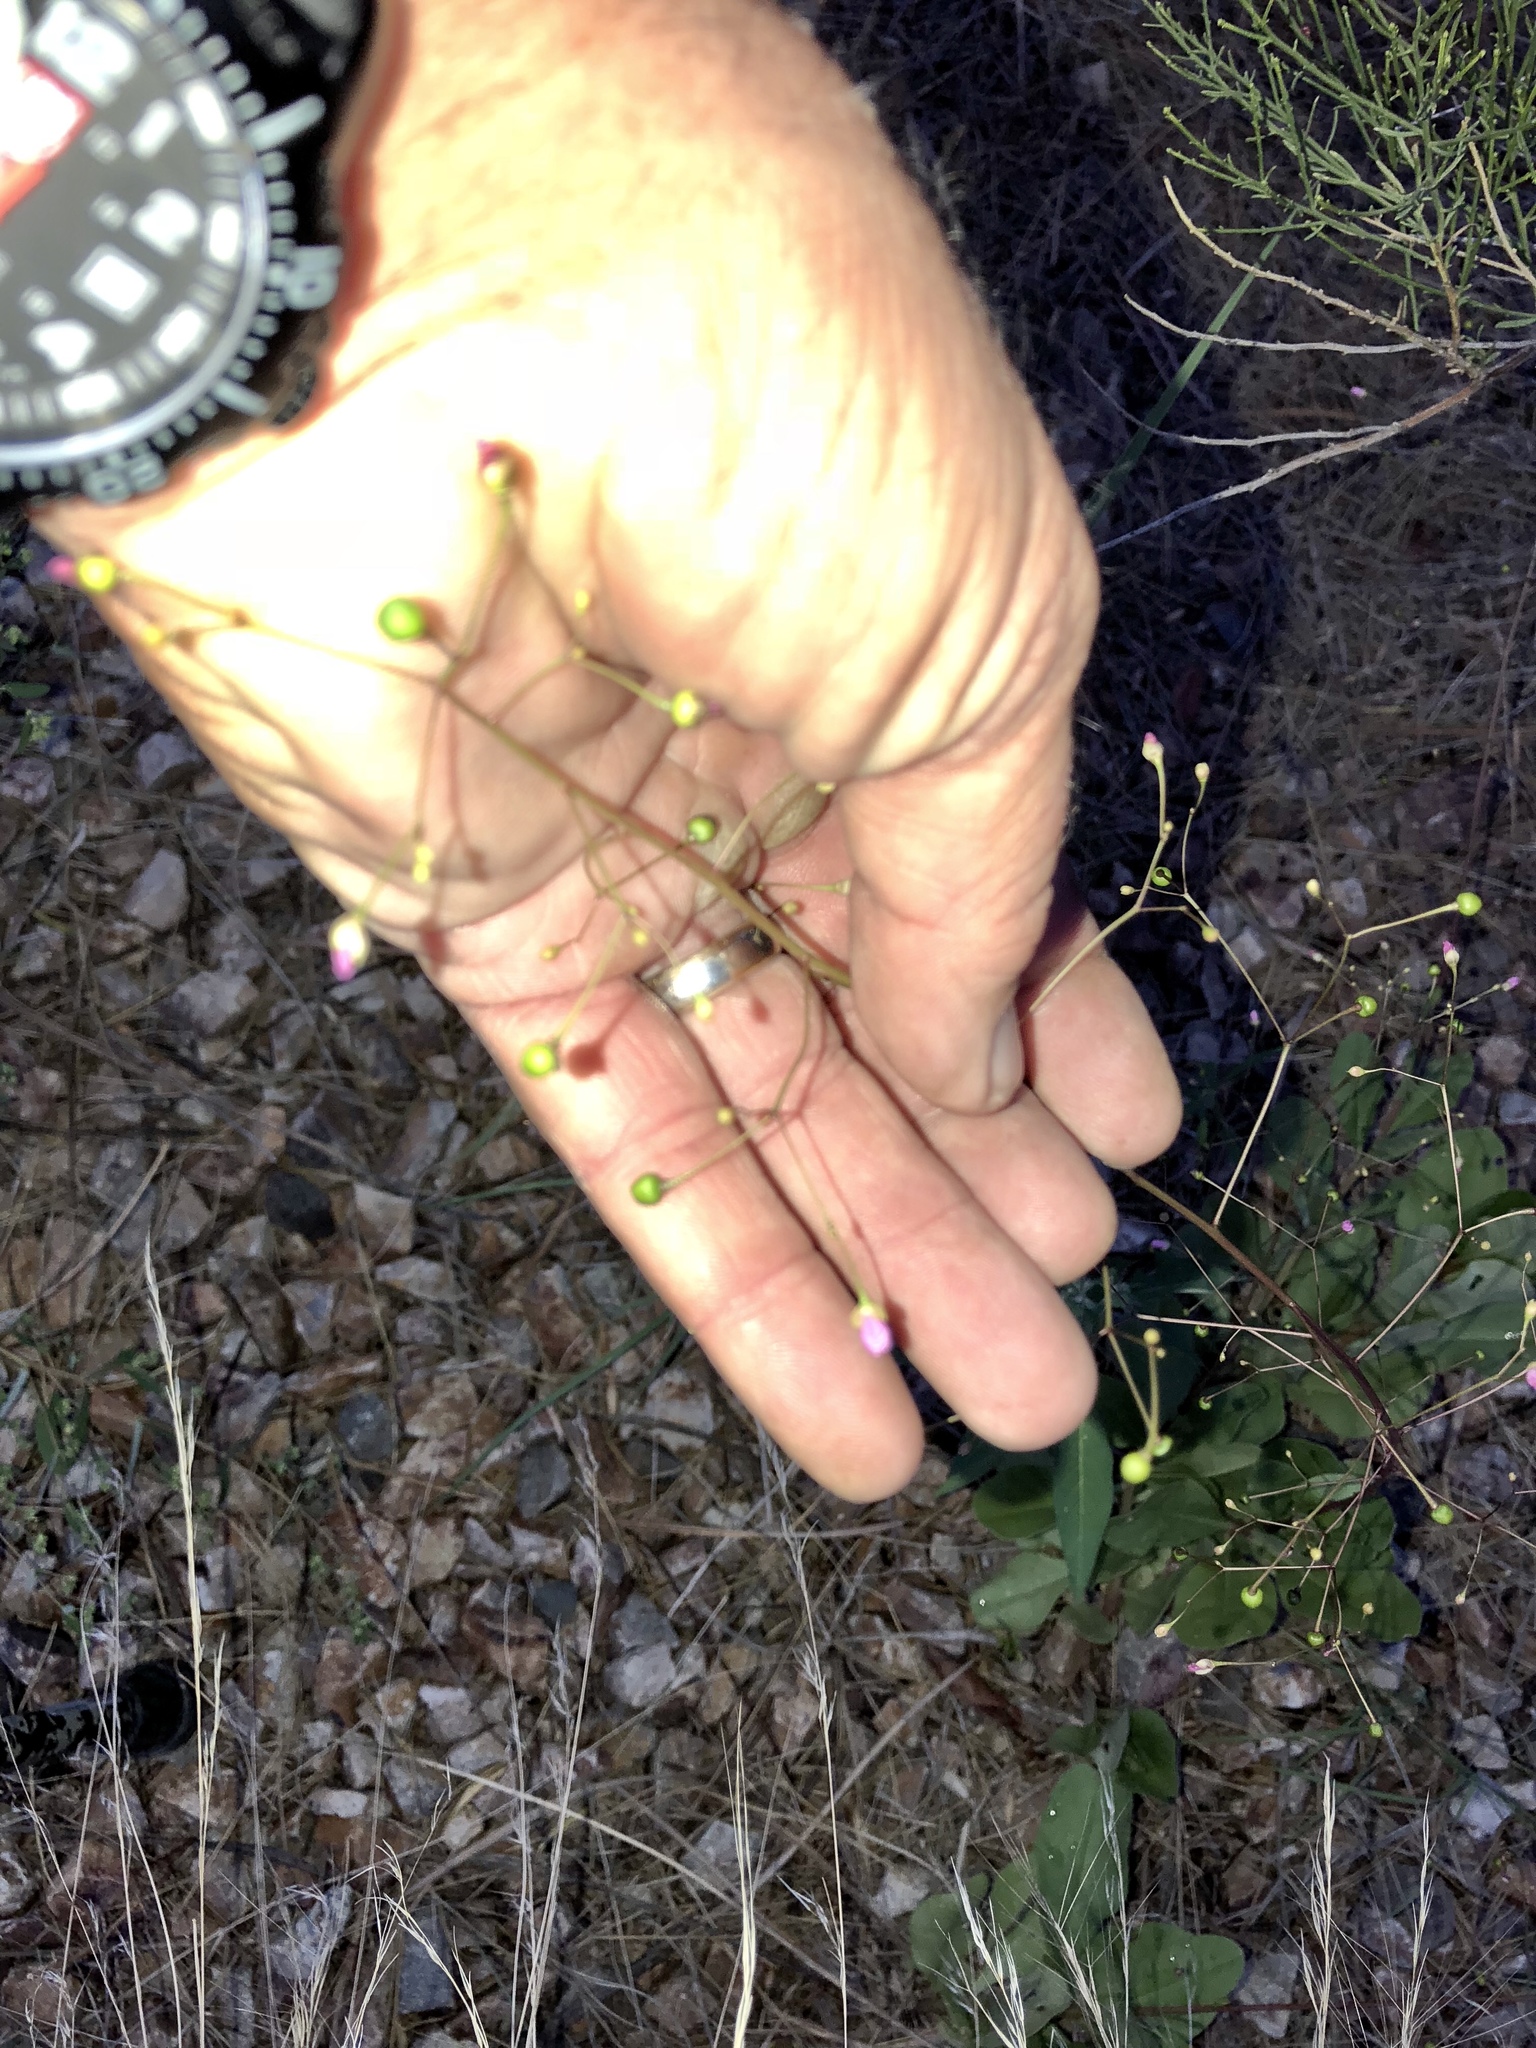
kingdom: Plantae
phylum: Tracheophyta
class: Magnoliopsida
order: Caryophyllales
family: Talinaceae
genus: Talinum
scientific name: Talinum paniculatum
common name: Jewels of opar
